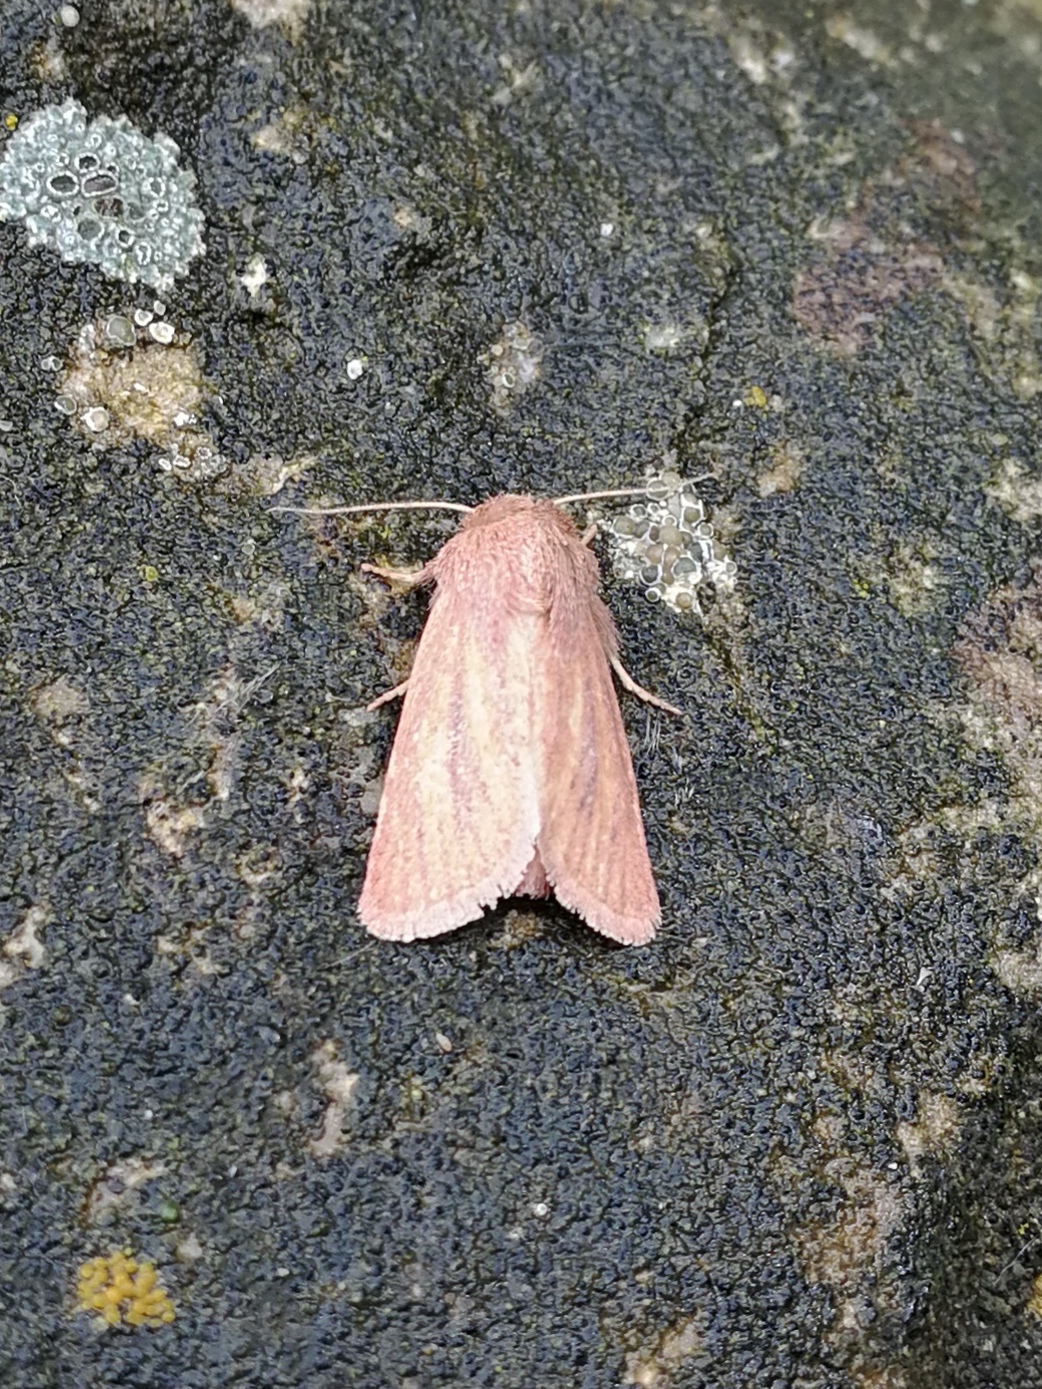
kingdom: Animalia
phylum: Arthropoda
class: Insecta
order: Lepidoptera
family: Noctuidae
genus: Denticucullus
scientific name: Denticucullus pygmina
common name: Small wainscot
